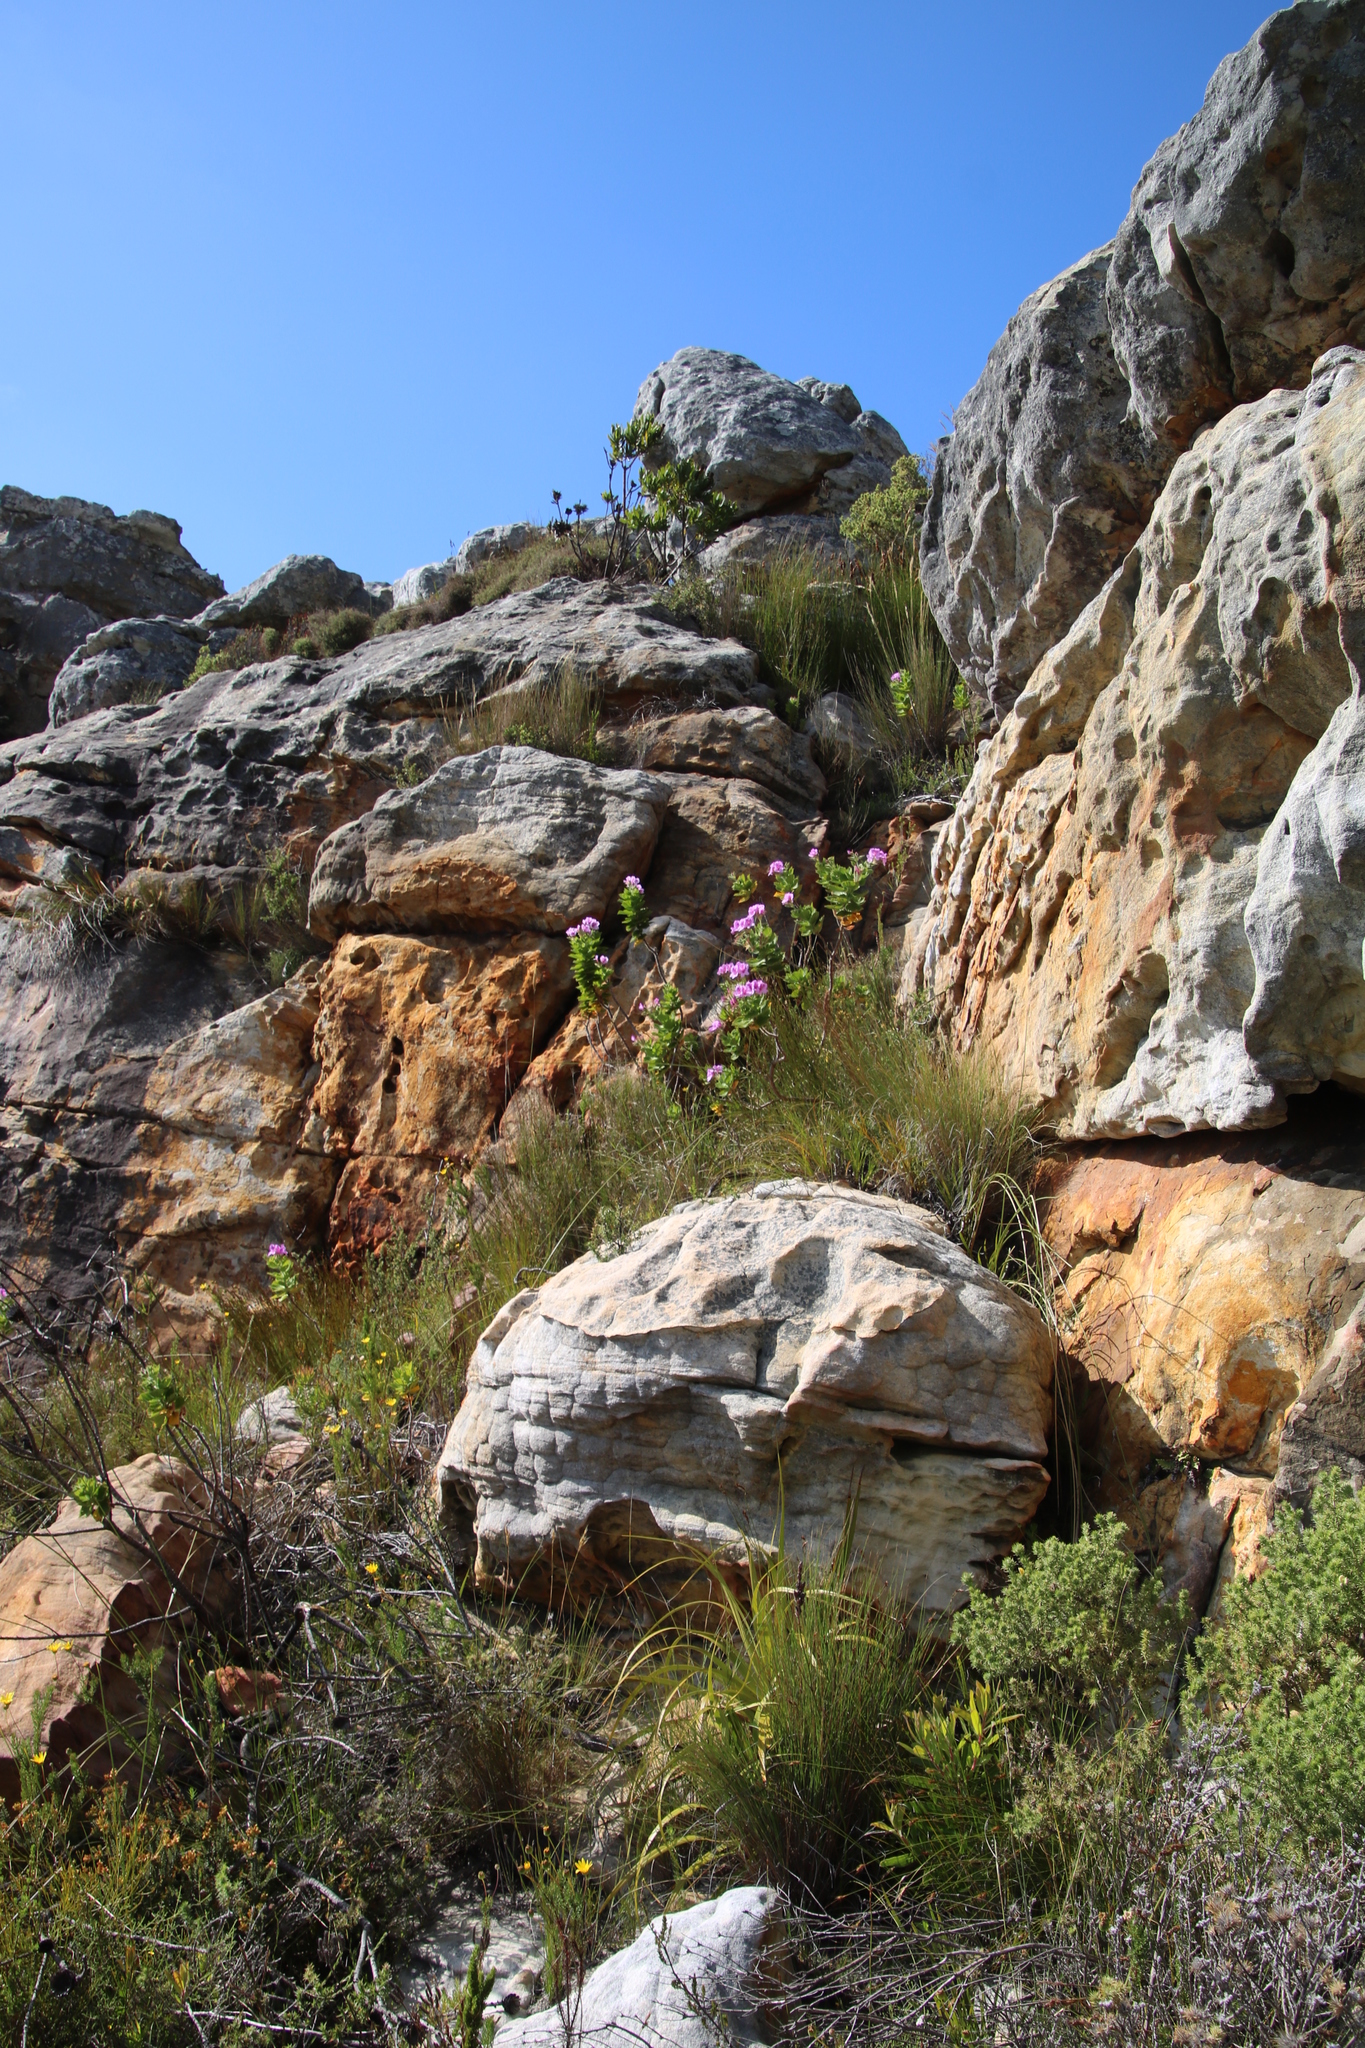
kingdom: Plantae
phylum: Tracheophyta
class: Magnoliopsida
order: Geraniales
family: Geraniaceae
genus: Pelargonium
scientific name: Pelargonium cucullatum
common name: Tree pelargonium
